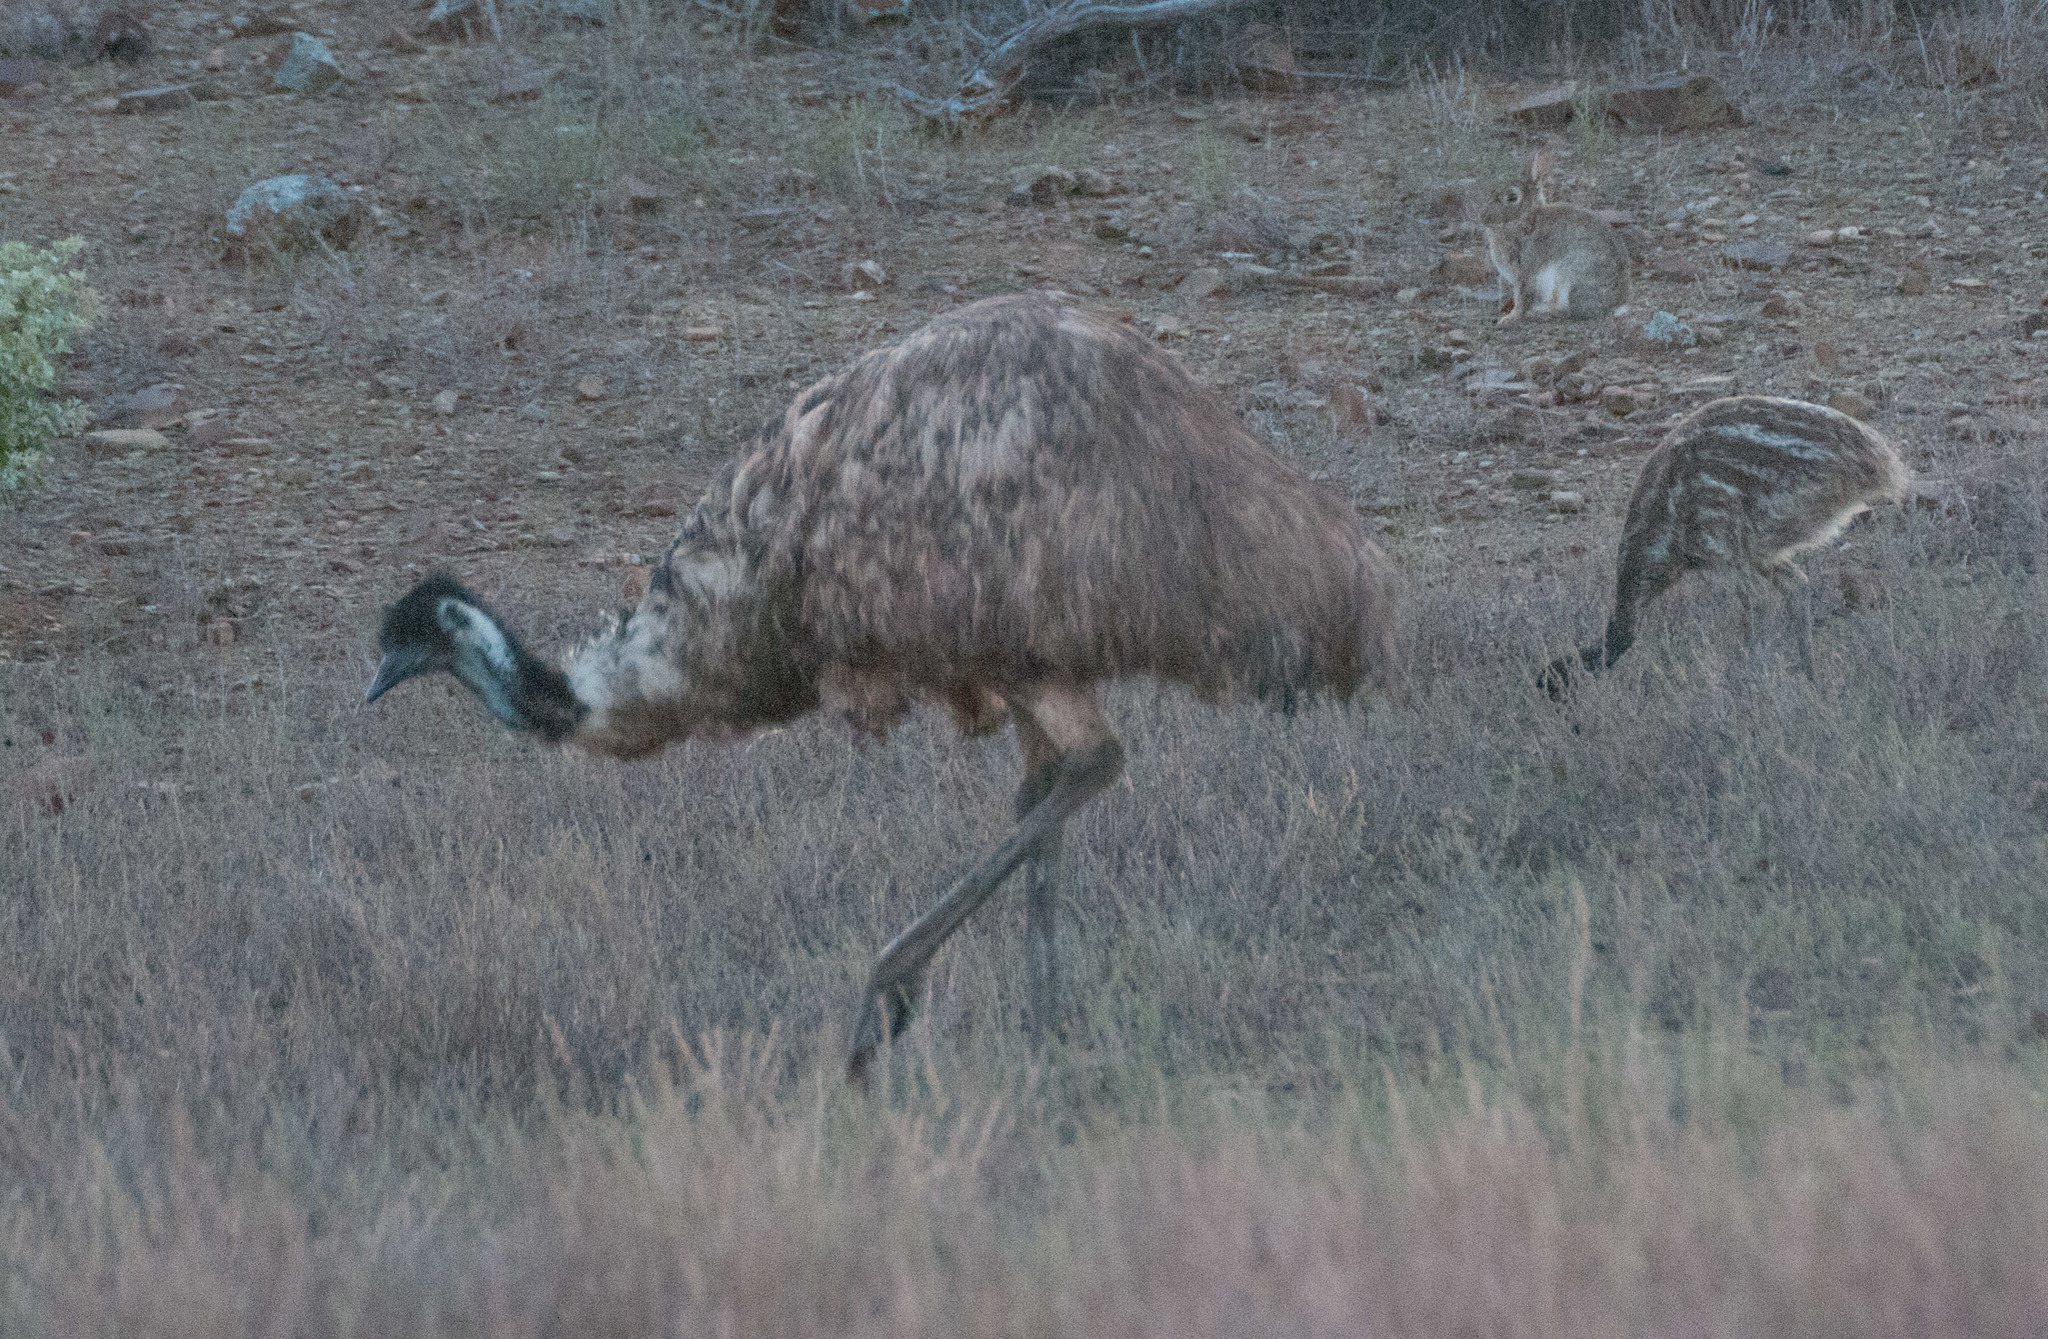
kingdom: Animalia
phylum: Chordata
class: Aves
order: Casuariiformes
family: Dromaiidae
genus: Dromaius
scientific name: Dromaius novaehollandiae
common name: Emu
